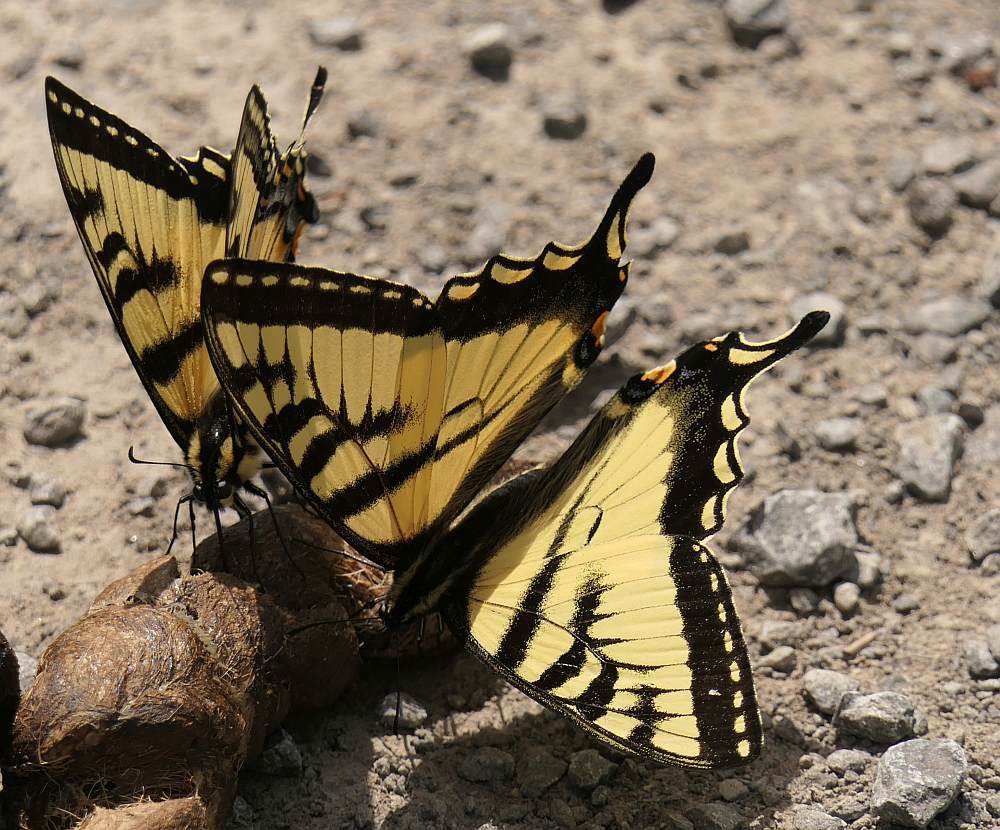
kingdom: Animalia
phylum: Arthropoda
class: Insecta
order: Lepidoptera
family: Papilionidae
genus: Papilio
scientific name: Papilio canadensis
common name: Canadian tiger swallowtail
